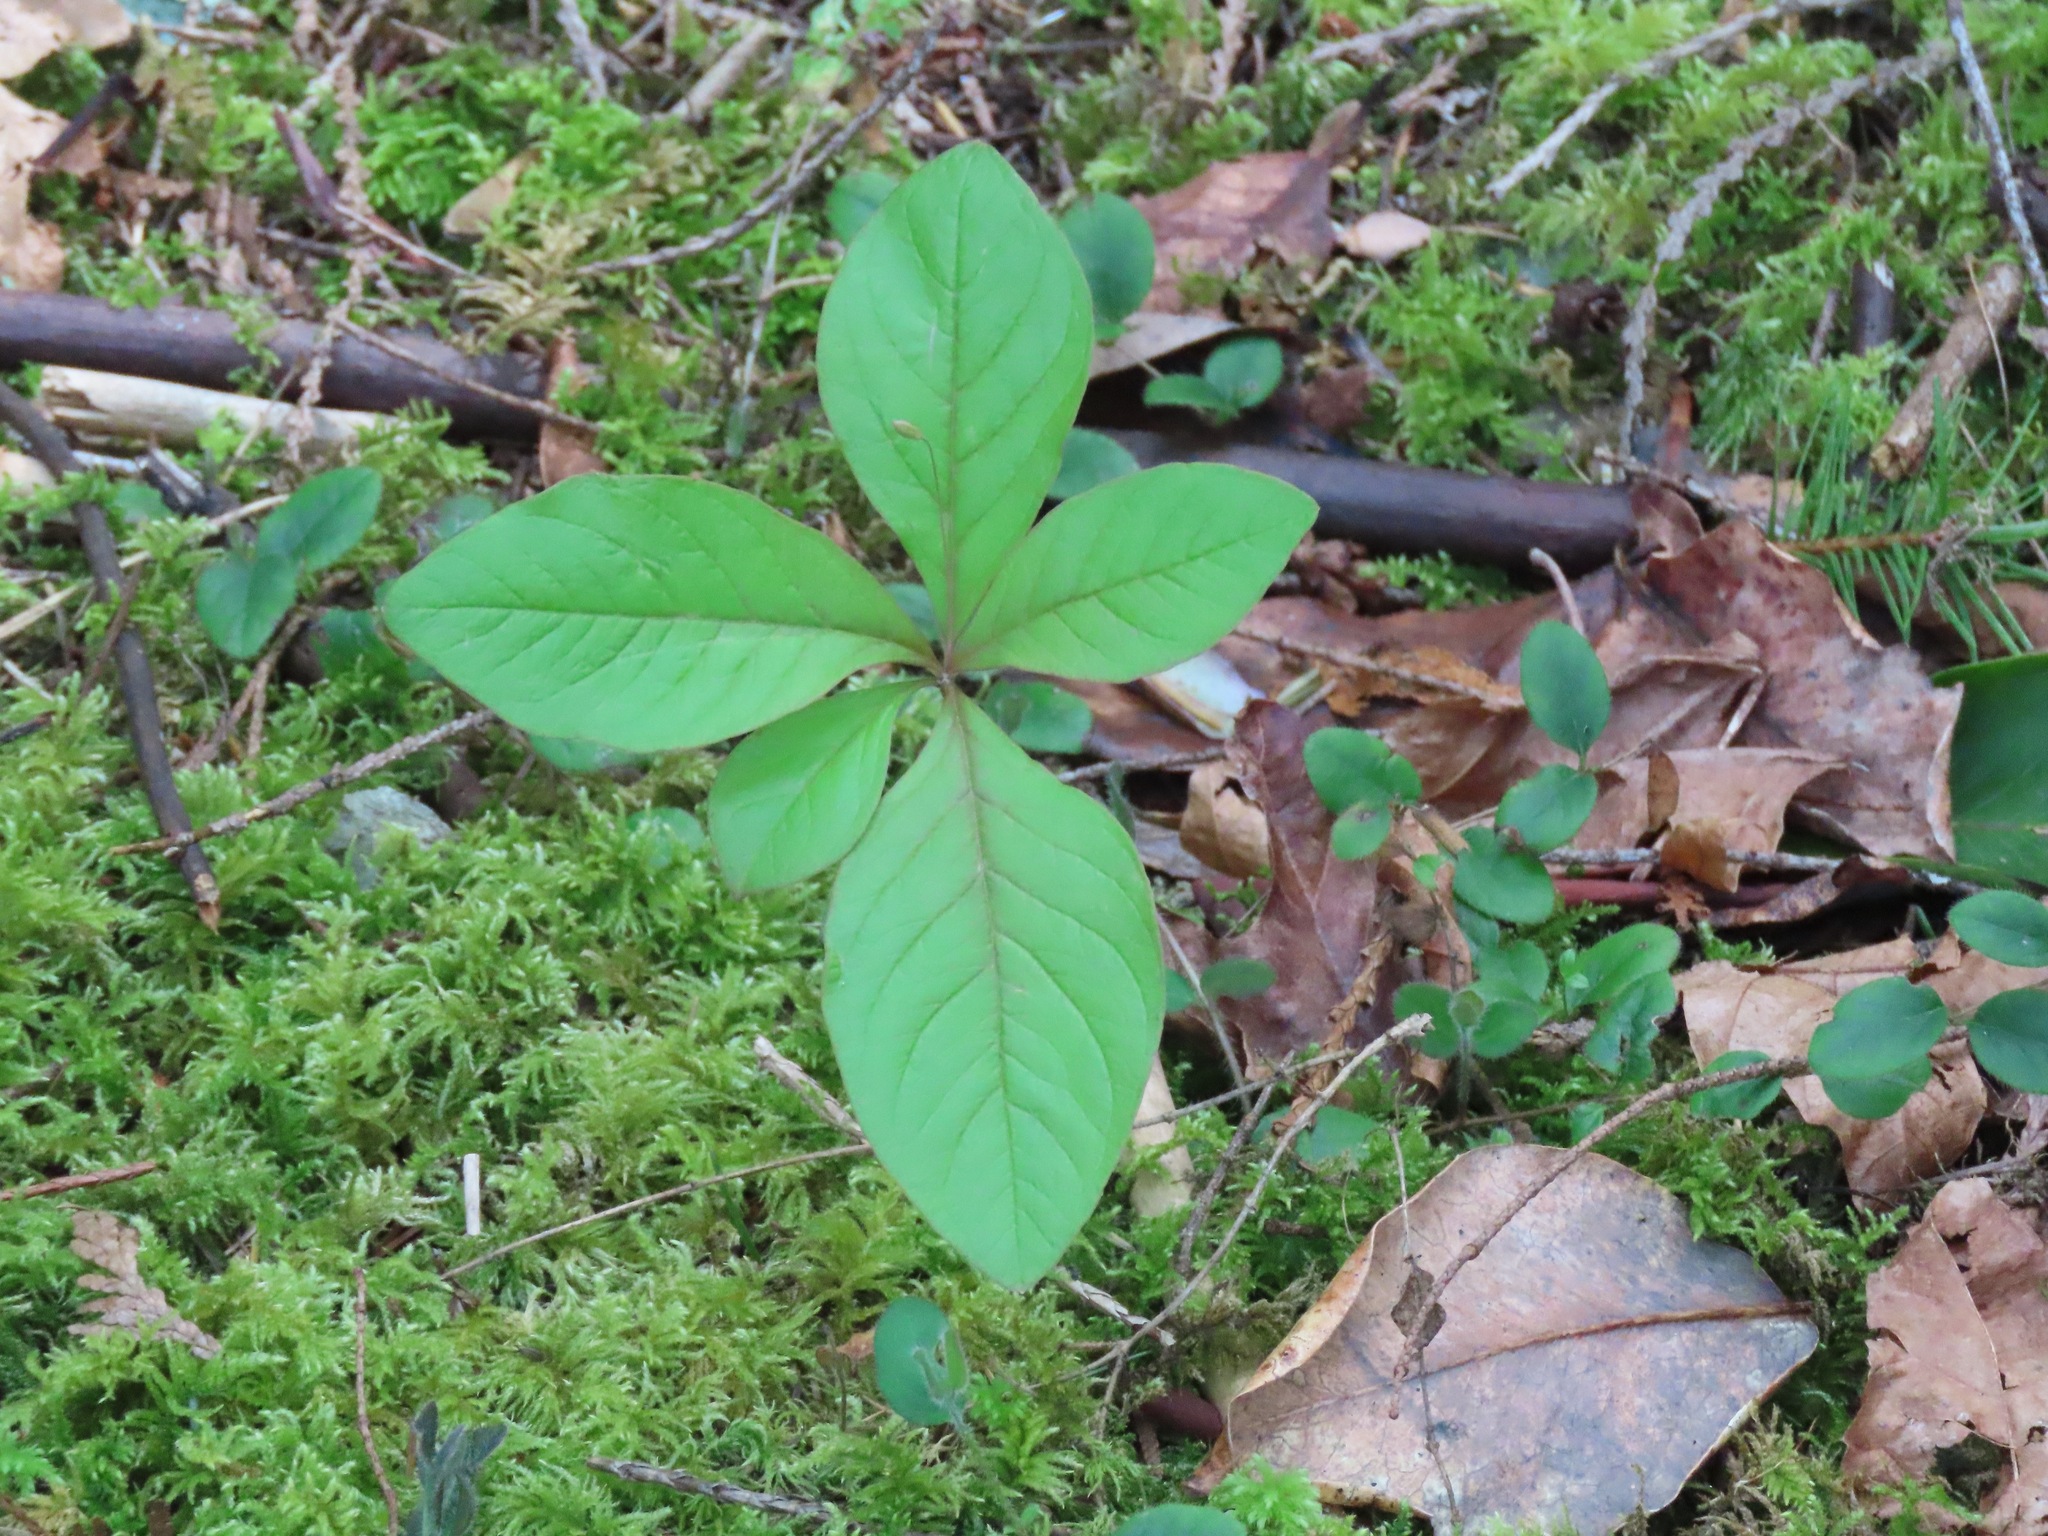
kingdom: Plantae
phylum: Tracheophyta
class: Magnoliopsida
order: Ericales
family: Primulaceae
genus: Lysimachia
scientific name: Lysimachia latifolia
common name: Pacific starflower
